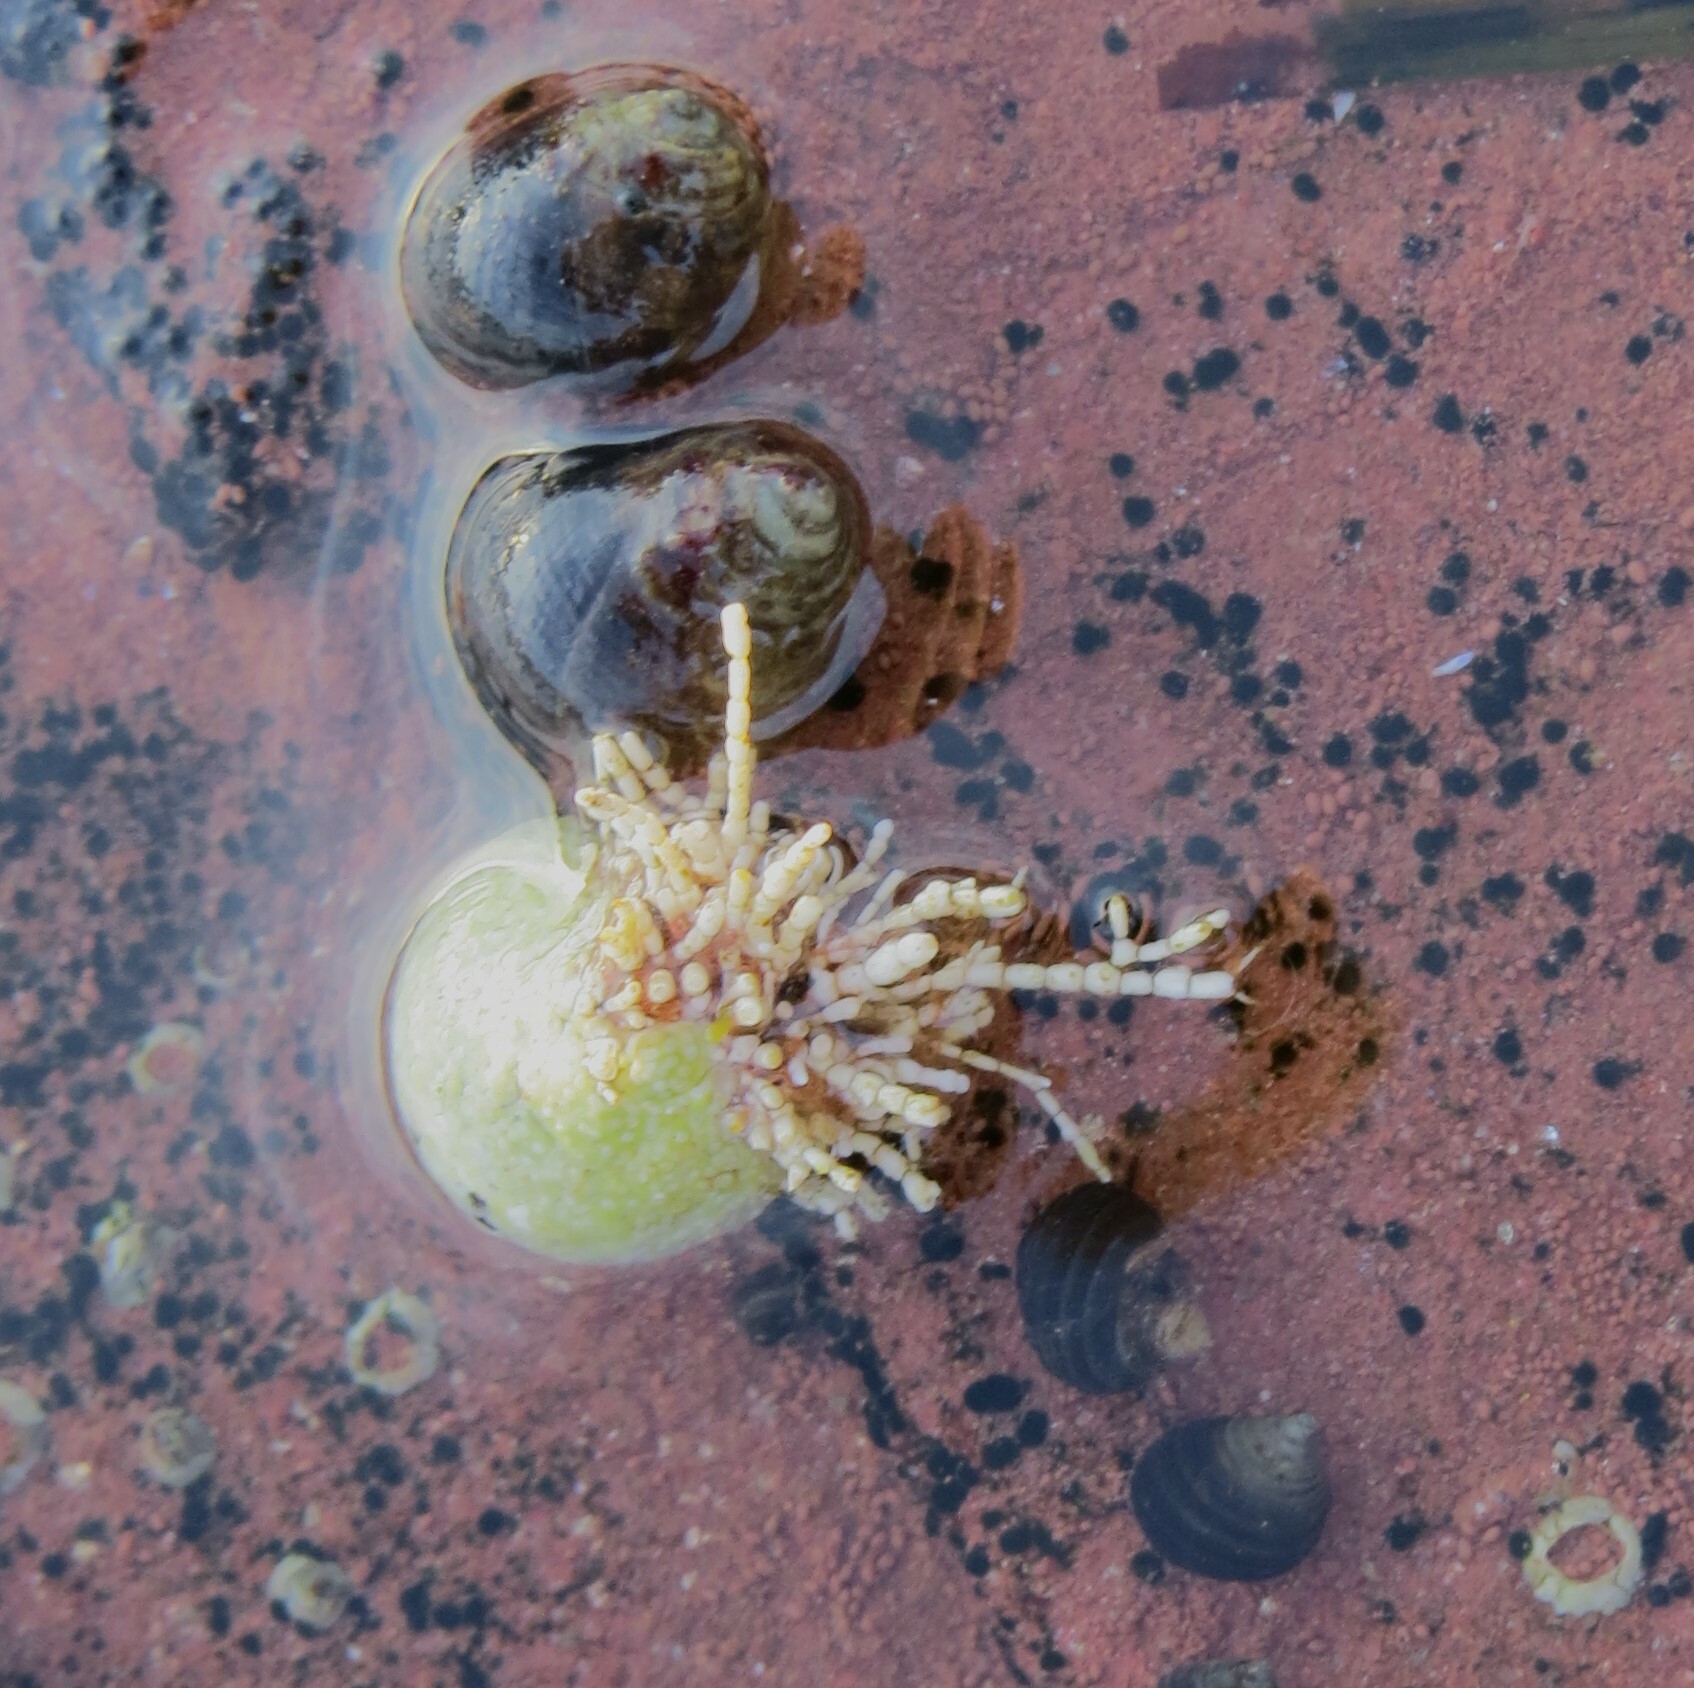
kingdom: Plantae
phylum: Rhodophyta
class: Florideophyceae
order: Corallinales
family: Corallinaceae
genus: Corallina
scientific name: Corallina officinalis
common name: Coral weed
